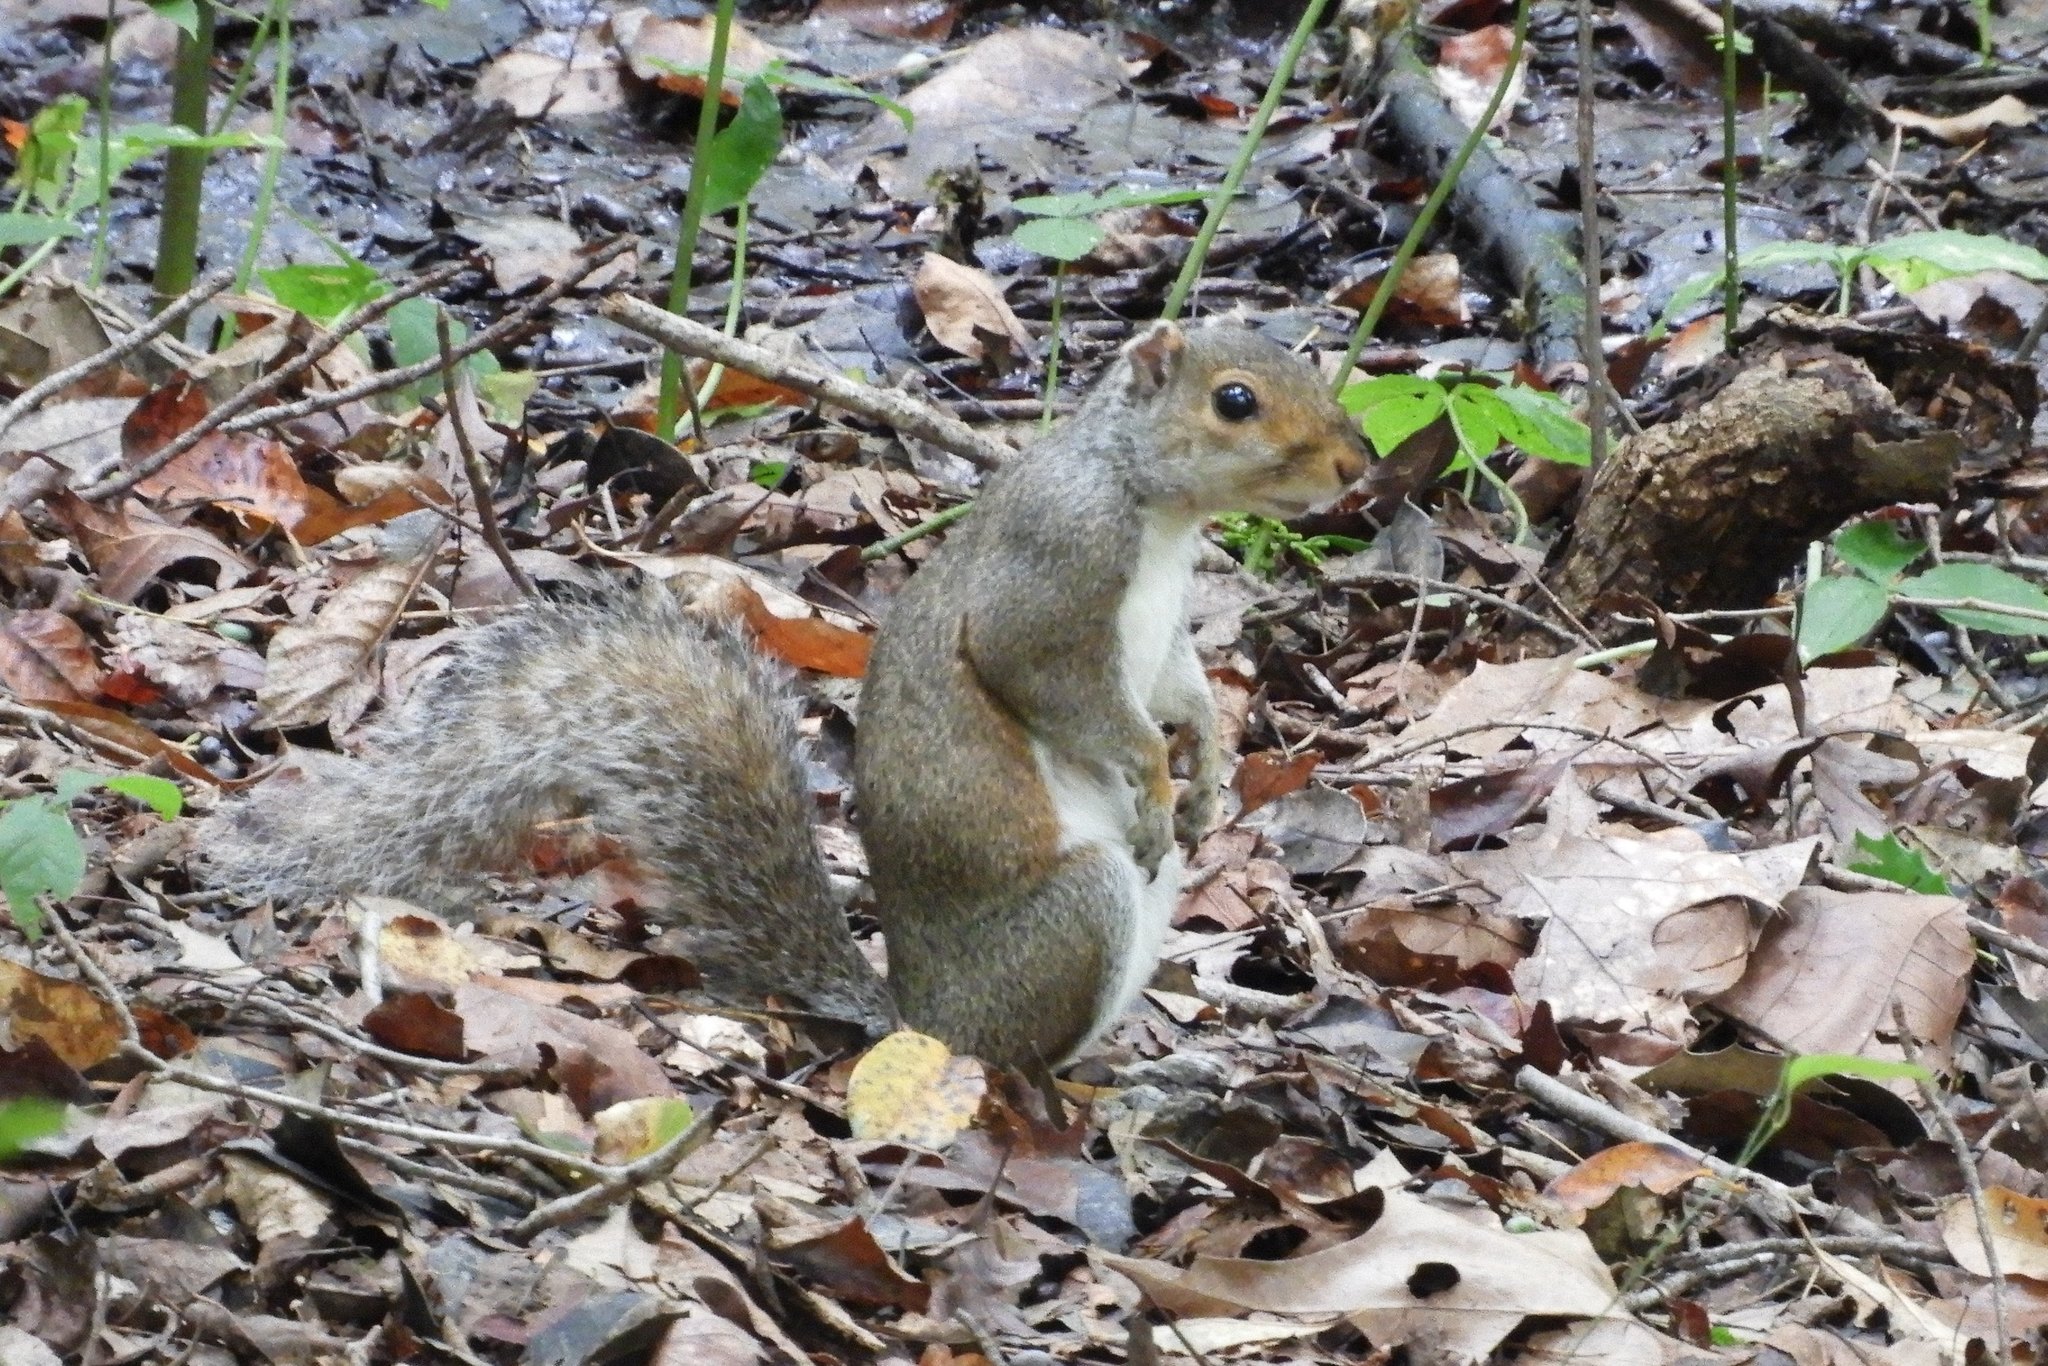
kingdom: Animalia
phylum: Chordata
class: Mammalia
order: Rodentia
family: Sciuridae
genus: Sciurus
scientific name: Sciurus carolinensis
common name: Eastern gray squirrel
